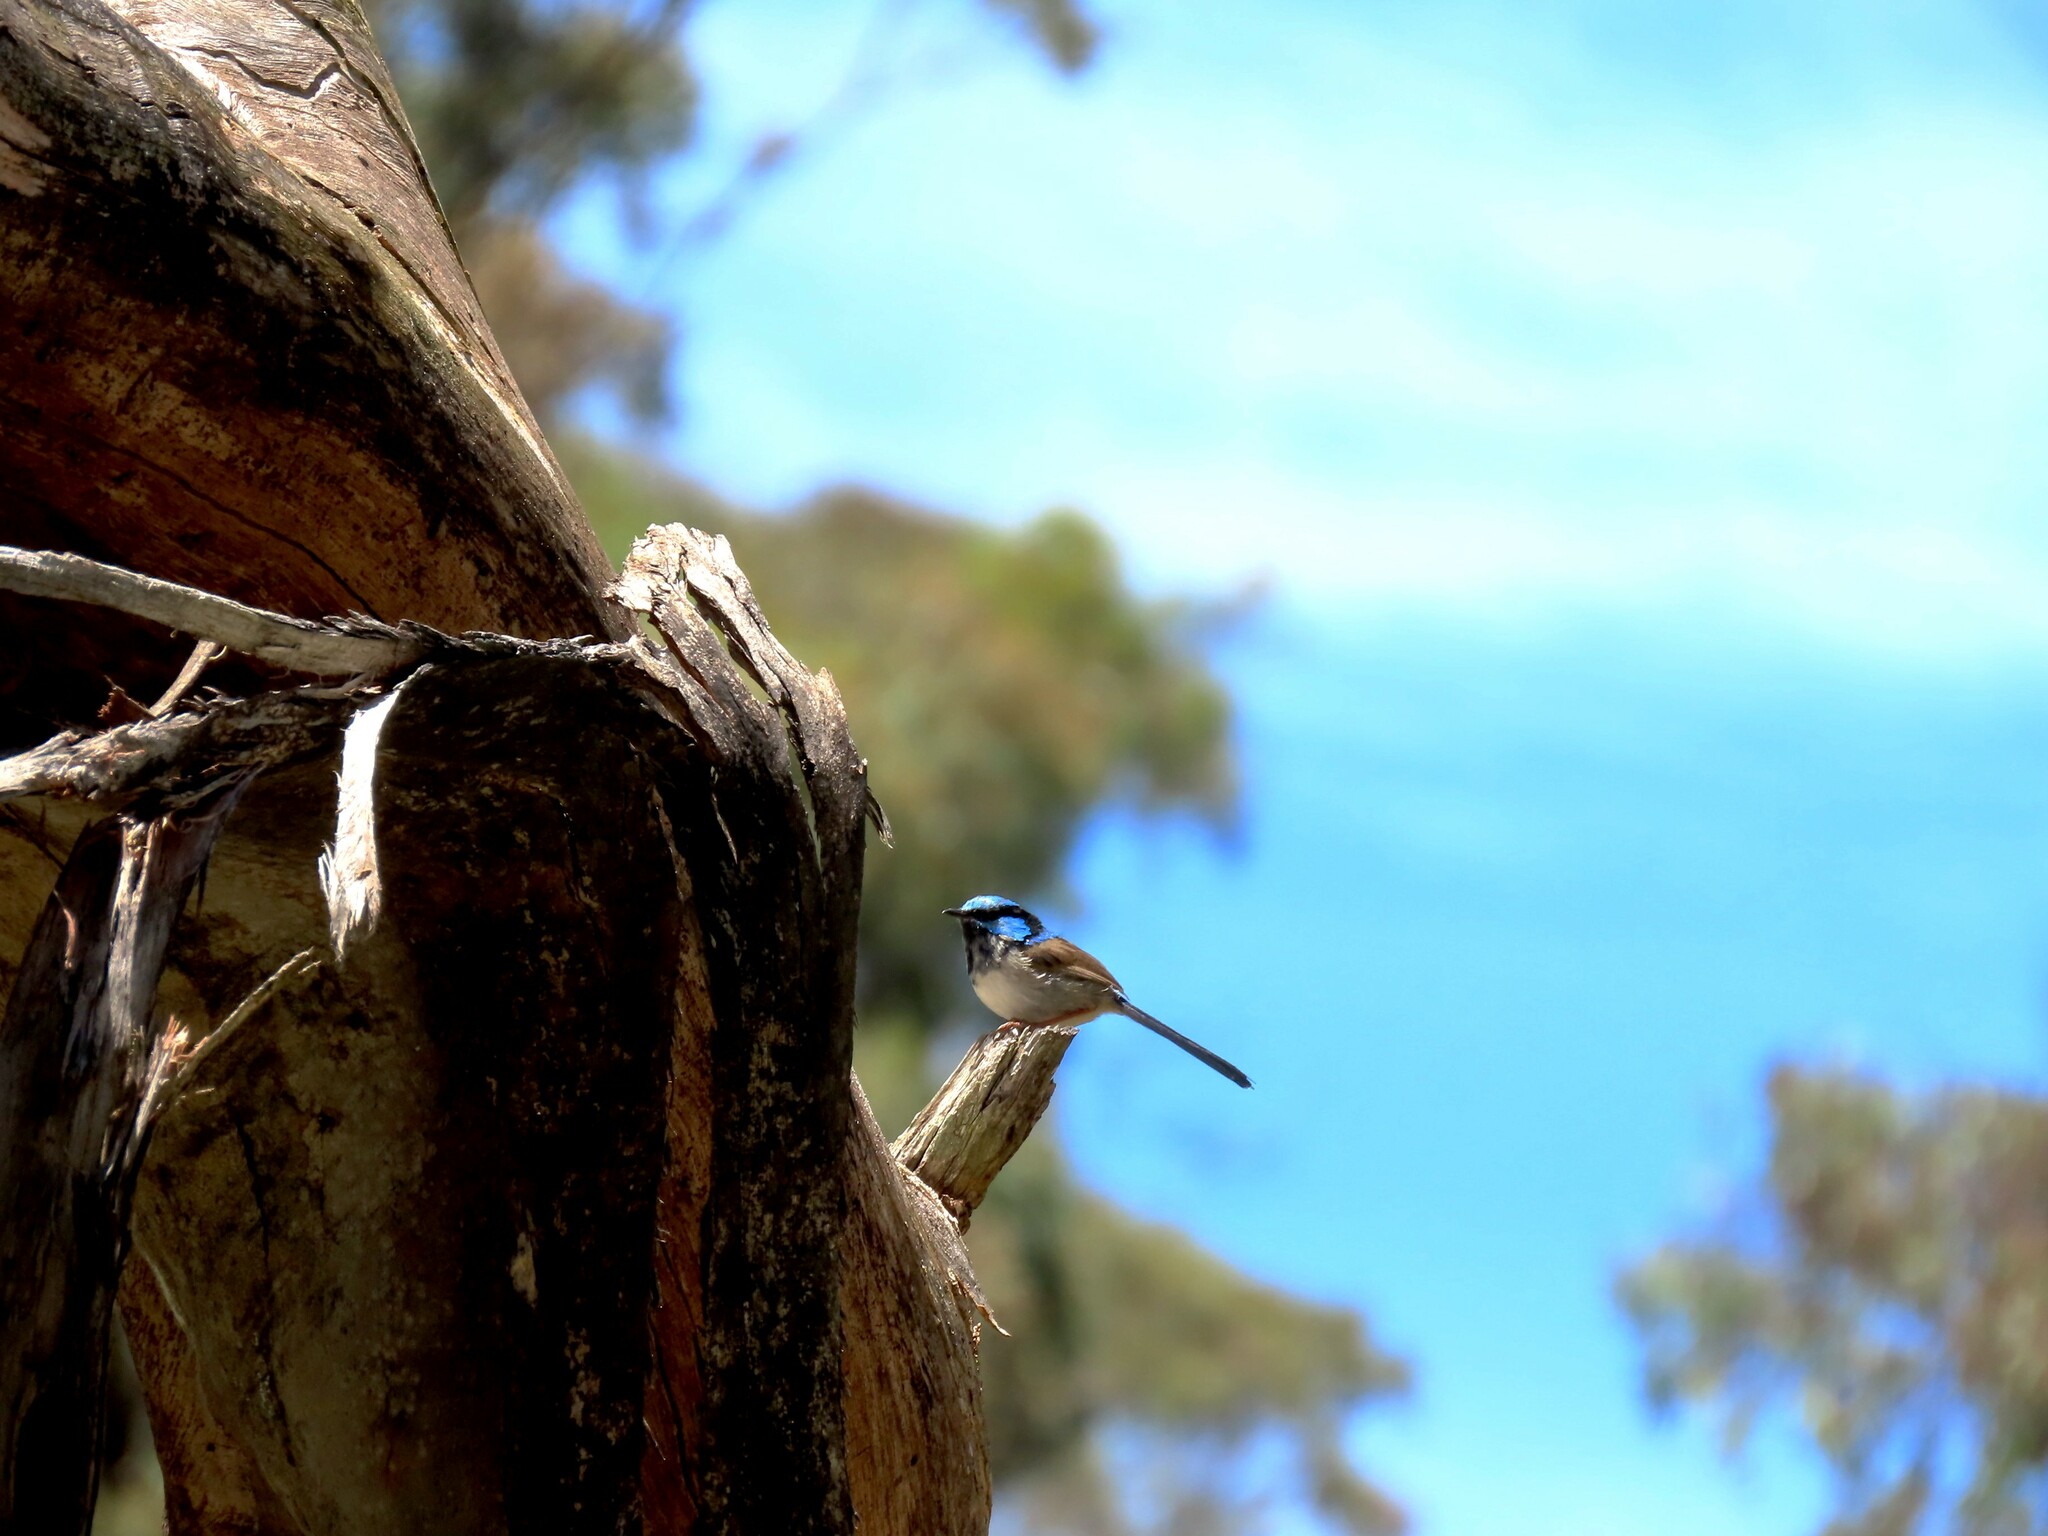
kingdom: Animalia
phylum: Chordata
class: Aves
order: Passeriformes
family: Maluridae
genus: Malurus
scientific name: Malurus cyaneus
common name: Superb fairywren
